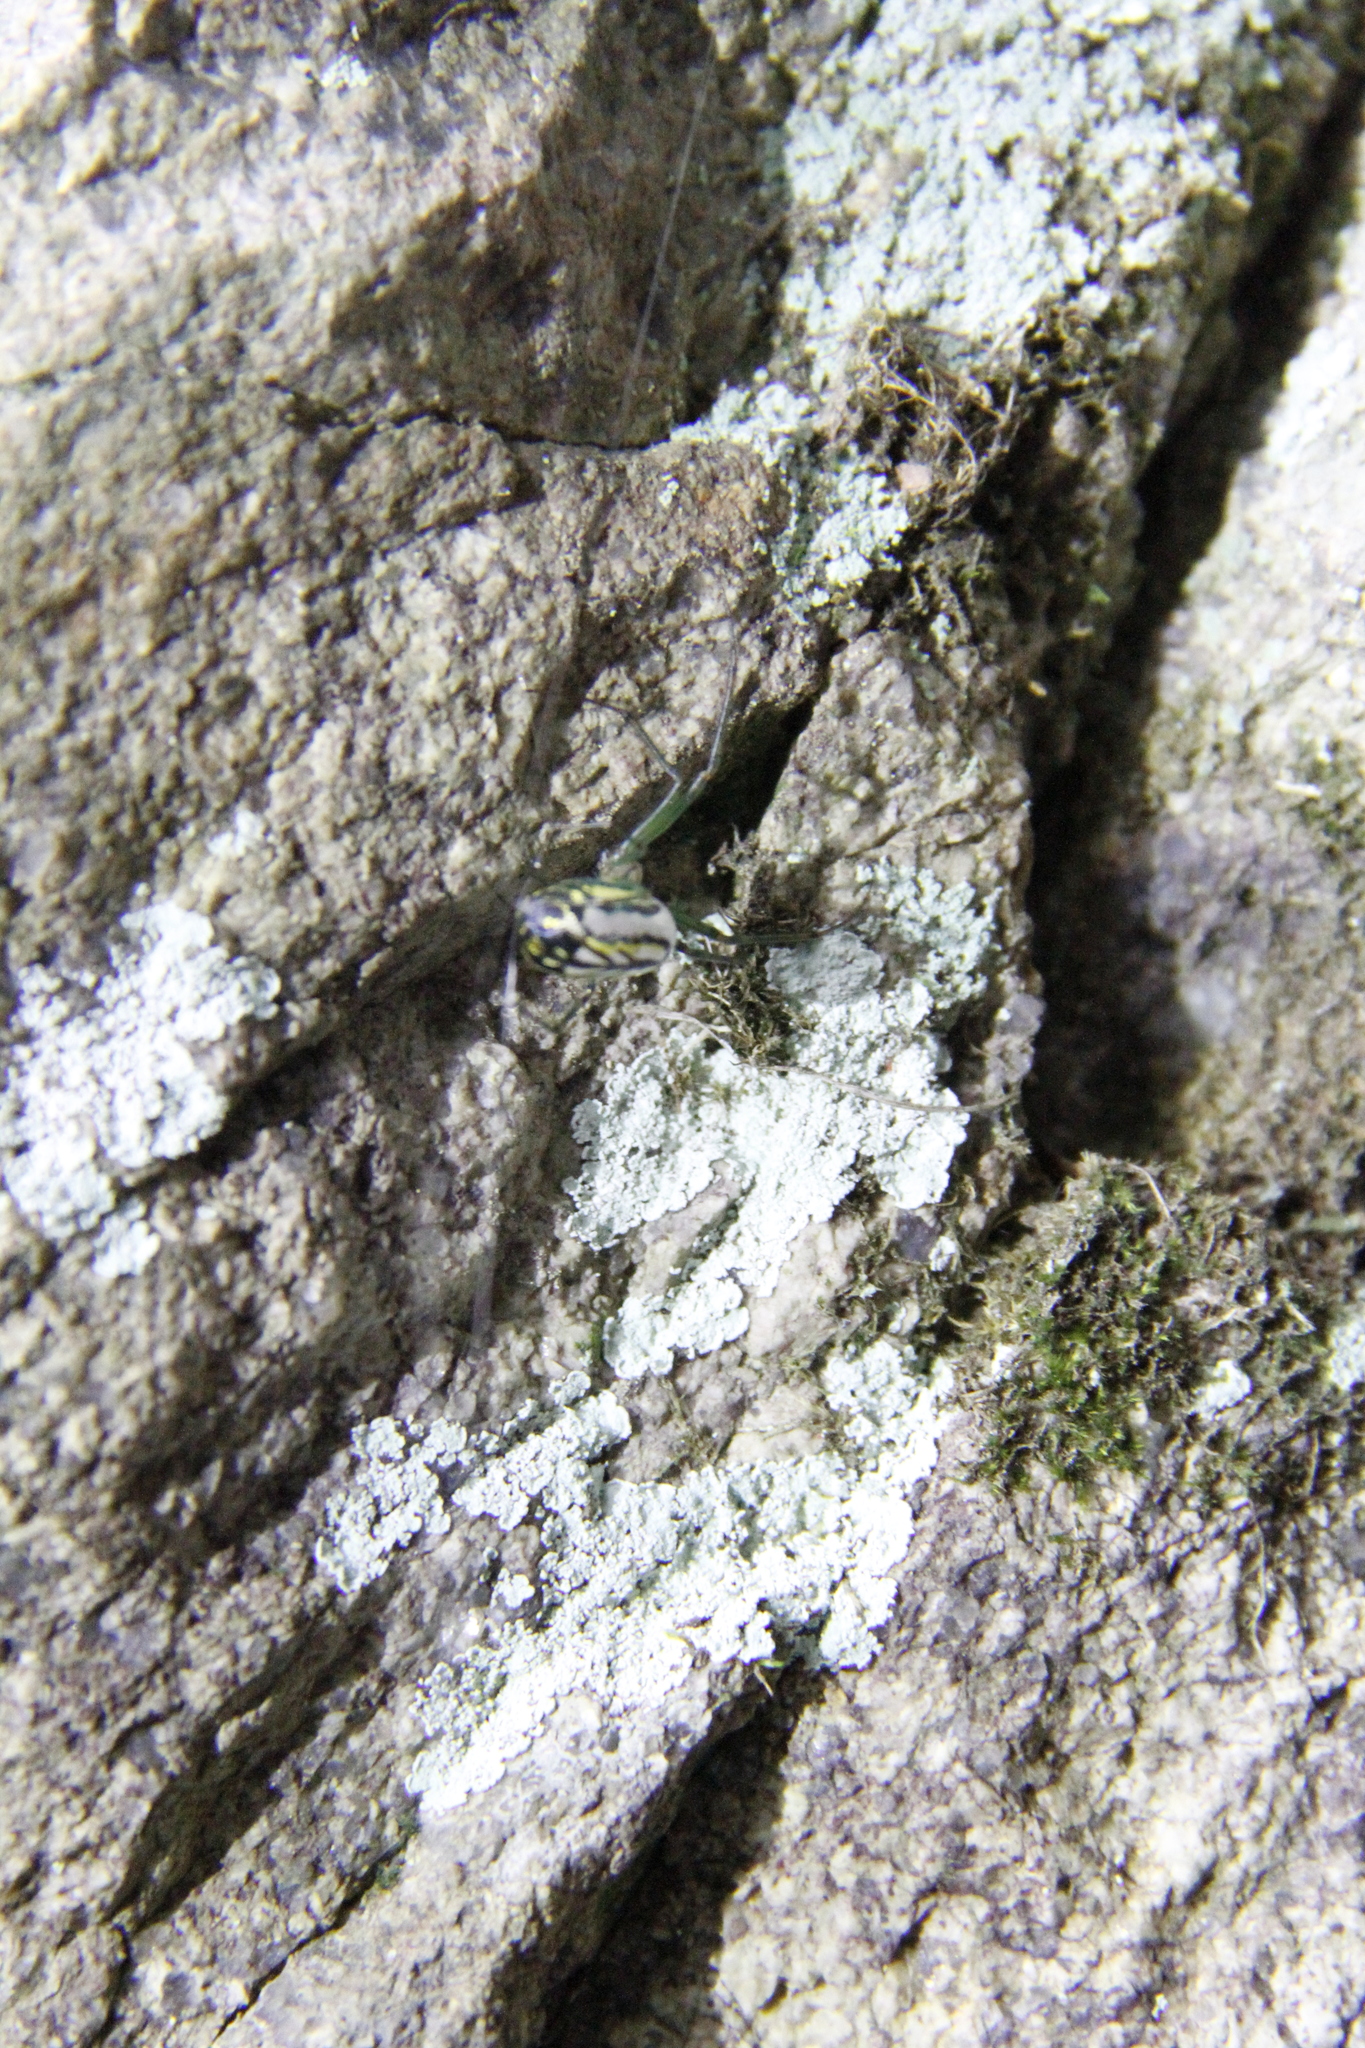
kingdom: Animalia
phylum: Arthropoda
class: Arachnida
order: Araneae
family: Tetragnathidae
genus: Leucauge
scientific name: Leucauge venusta
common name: Longjawed orb weavers
